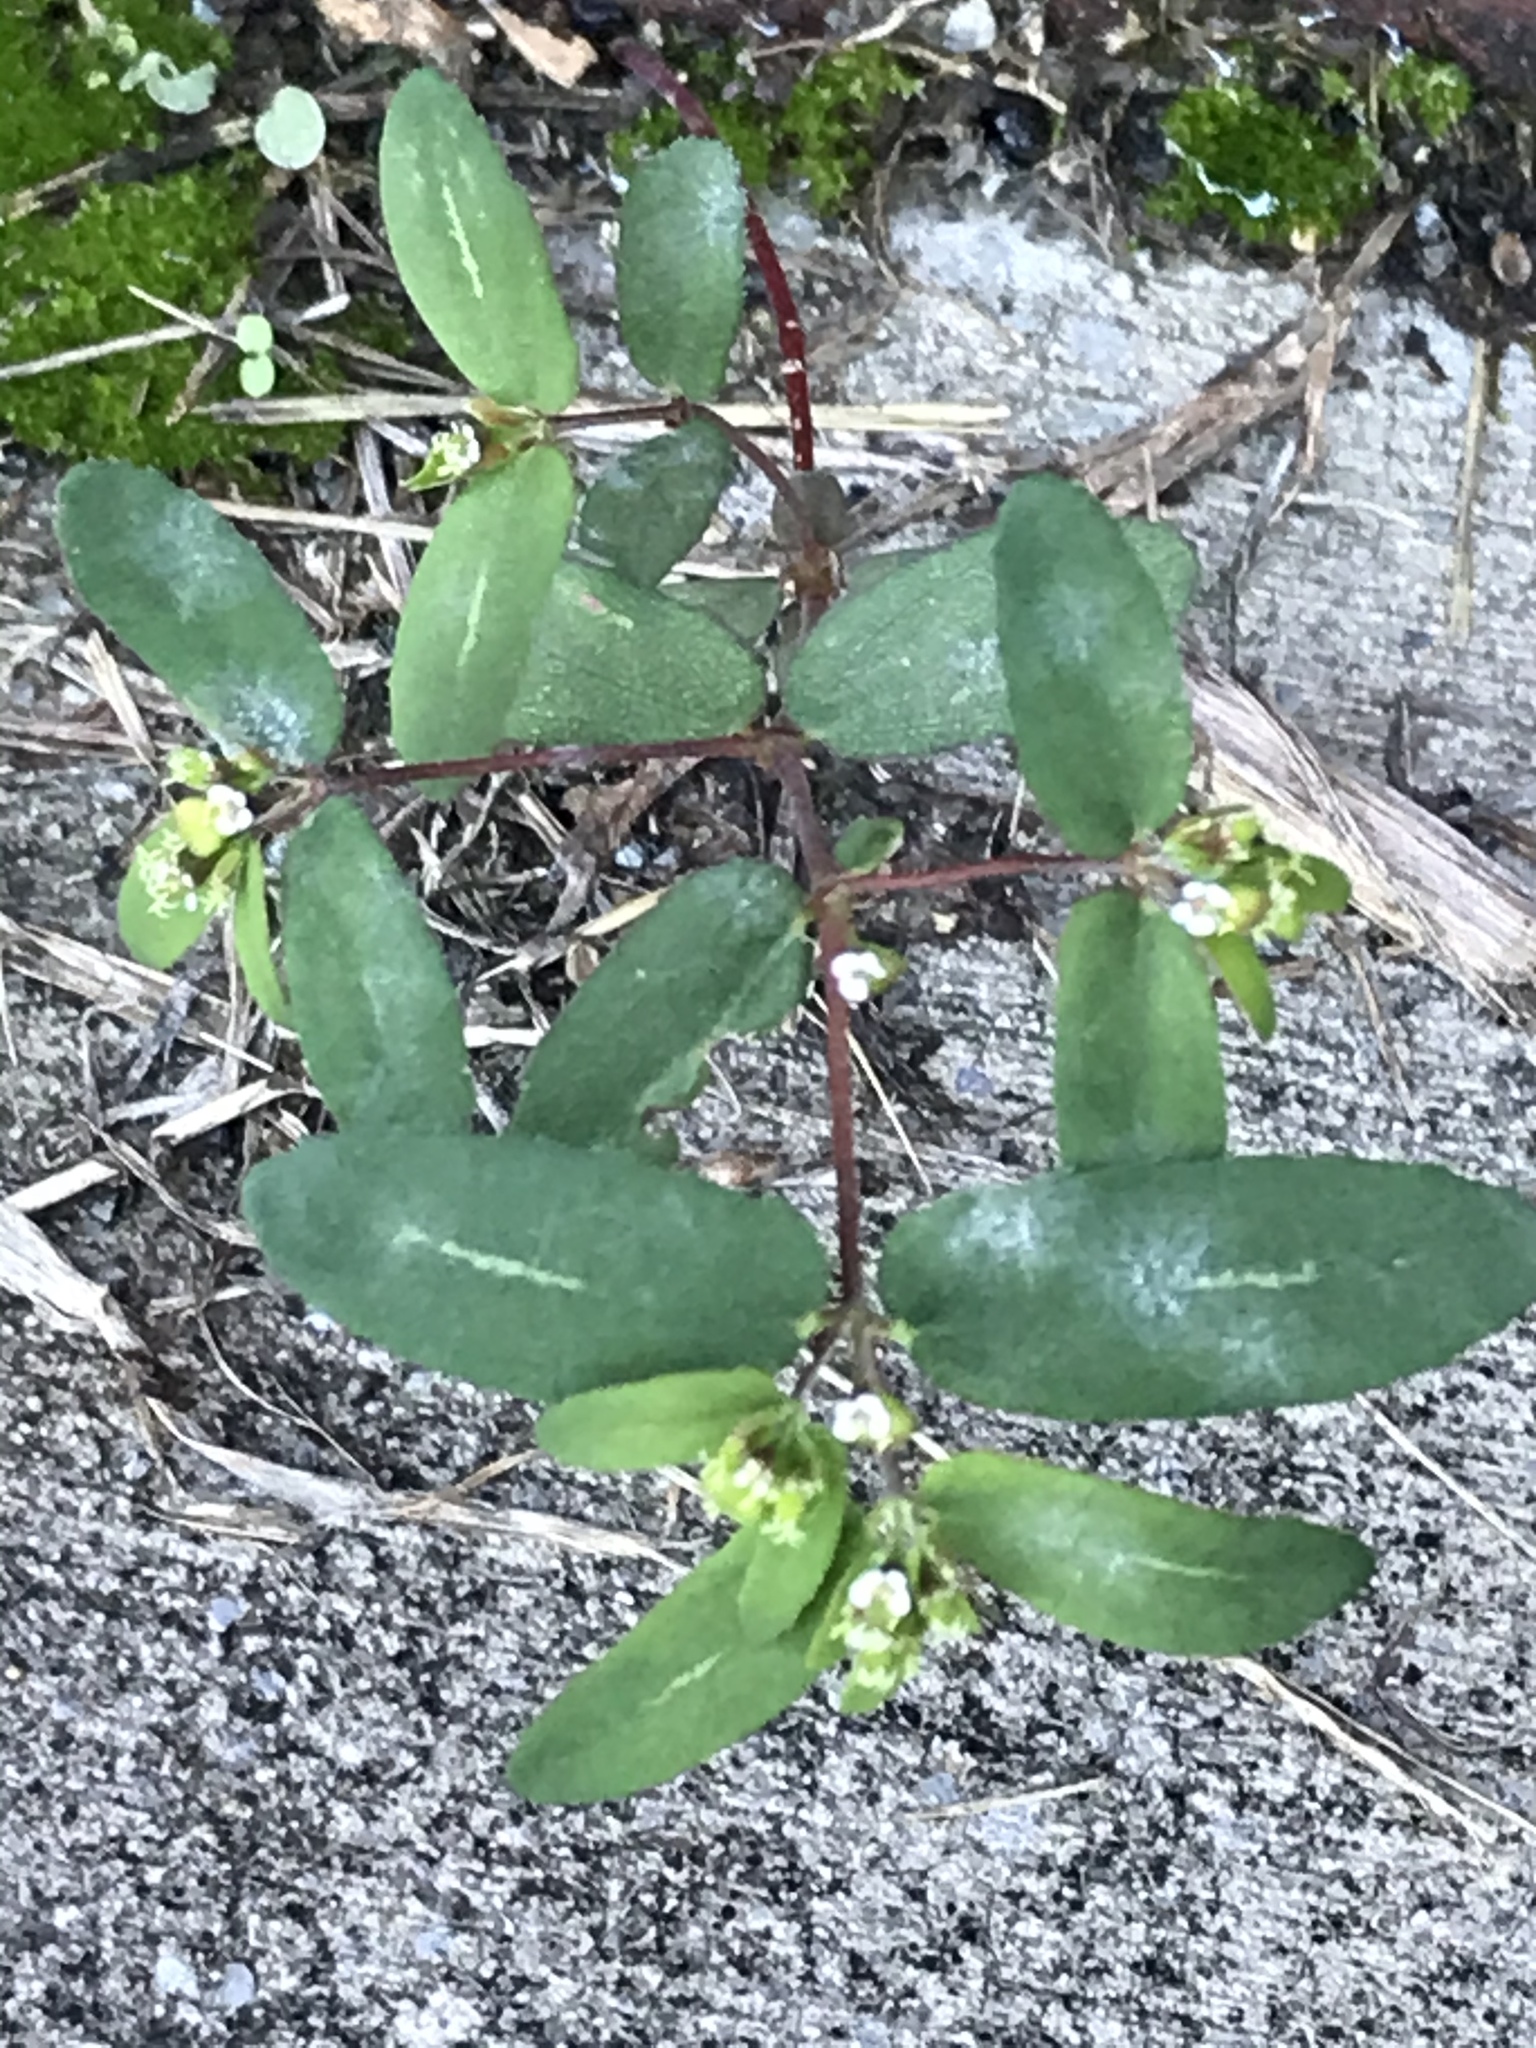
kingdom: Plantae
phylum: Tracheophyta
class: Magnoliopsida
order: Malpighiales
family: Euphorbiaceae
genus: Euphorbia
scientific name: Euphorbia nutans
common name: Eyebane
